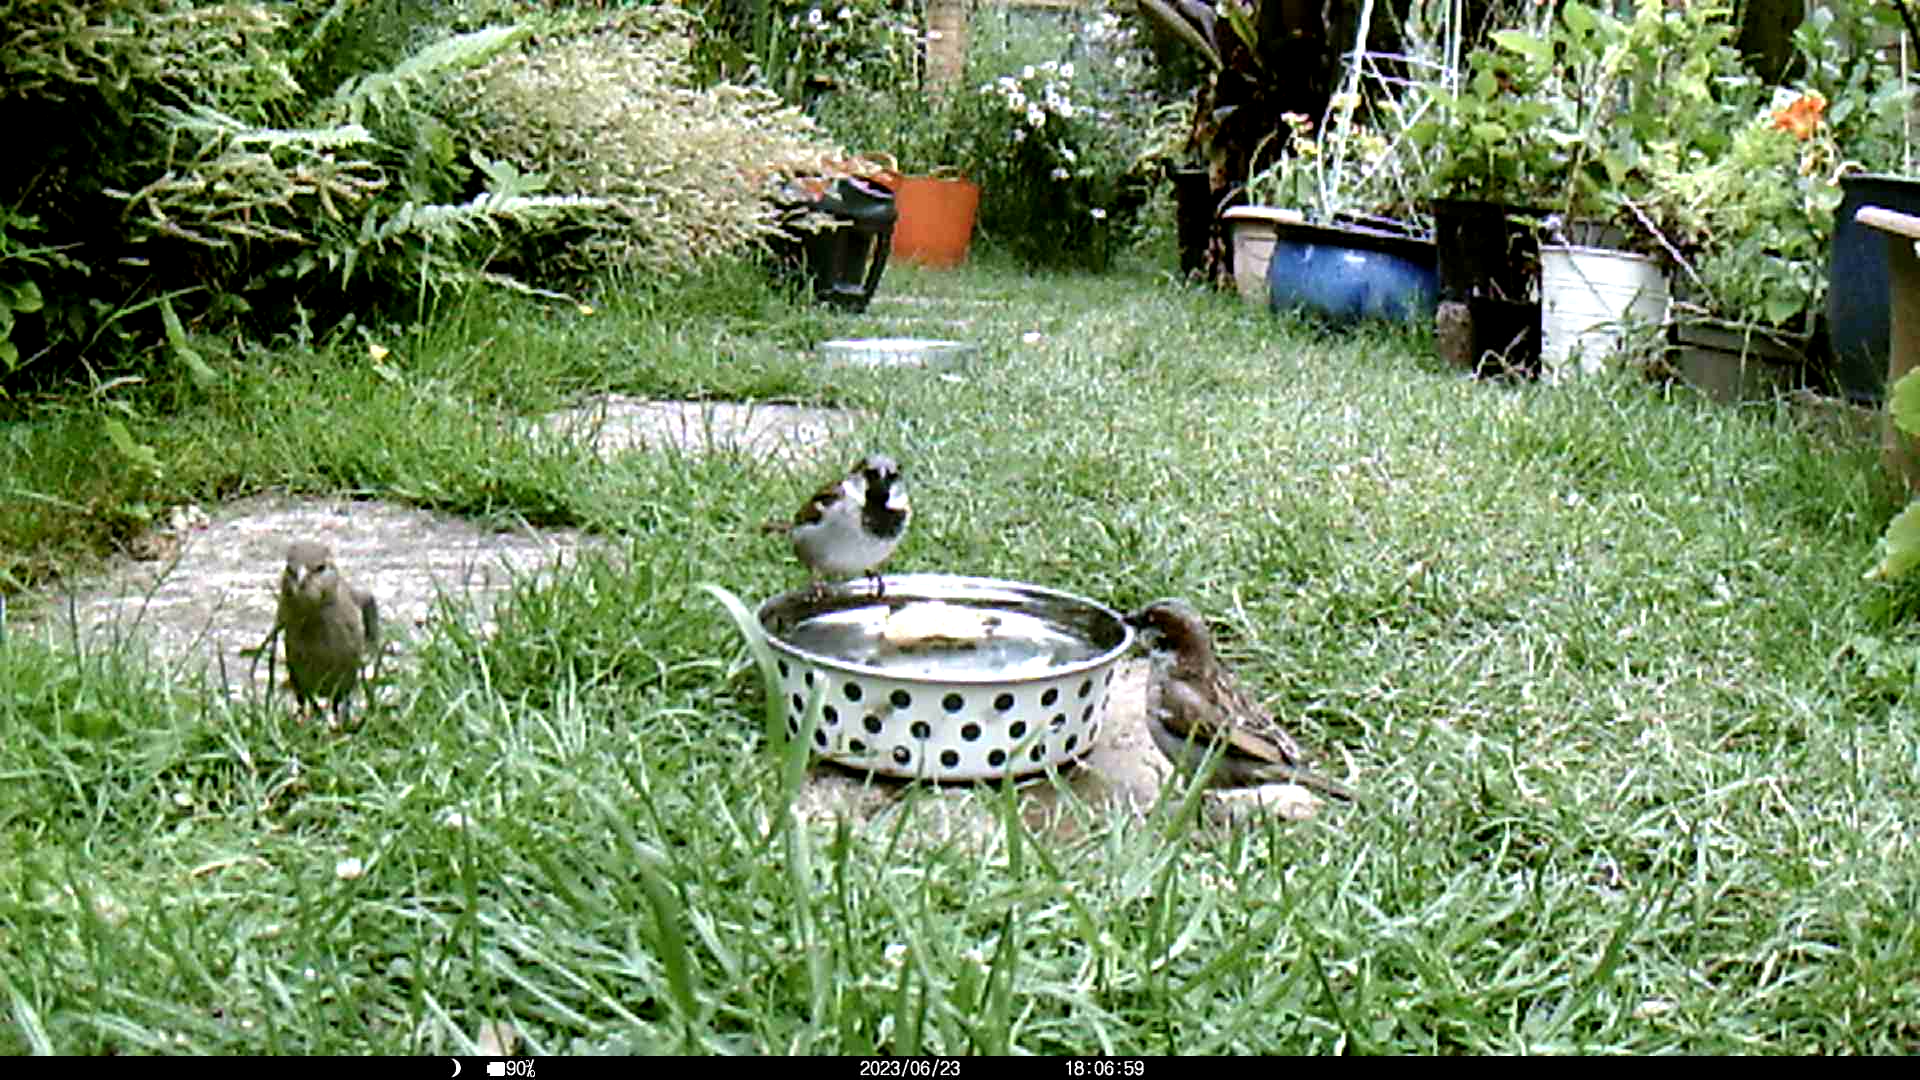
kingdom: Animalia
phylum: Chordata
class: Aves
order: Passeriformes
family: Passeridae
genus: Passer
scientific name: Passer domesticus
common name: House sparrow
